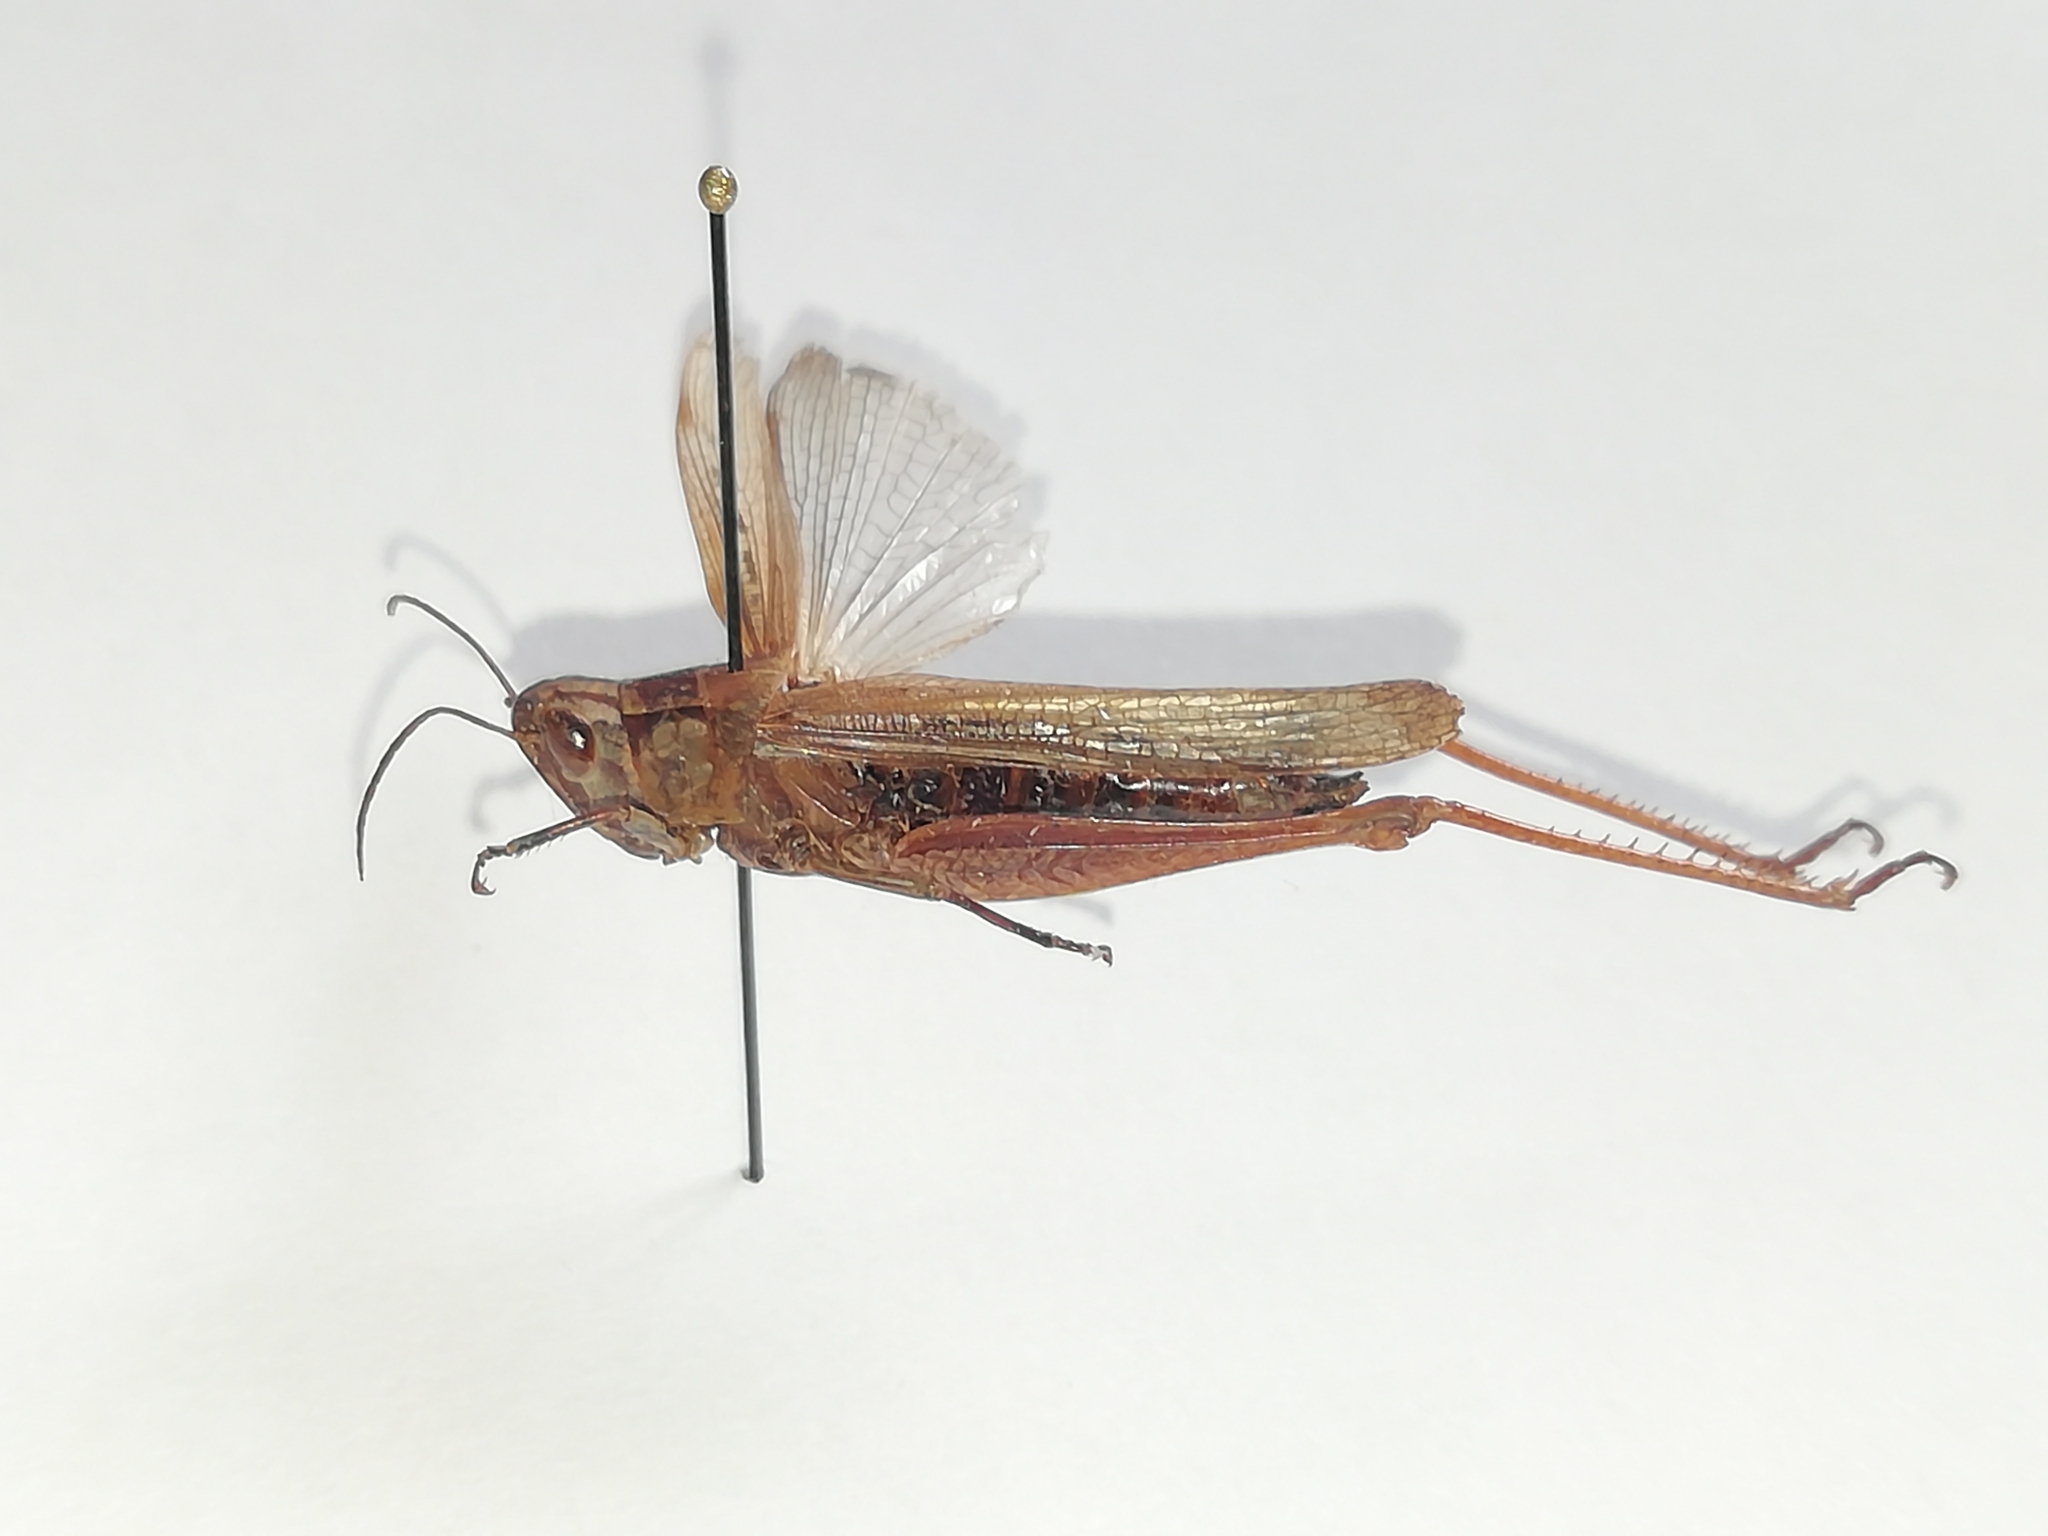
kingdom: Animalia
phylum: Arthropoda
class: Insecta
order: Orthoptera
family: Acrididae
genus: Chorthippus
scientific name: Chorthippus dichrous
